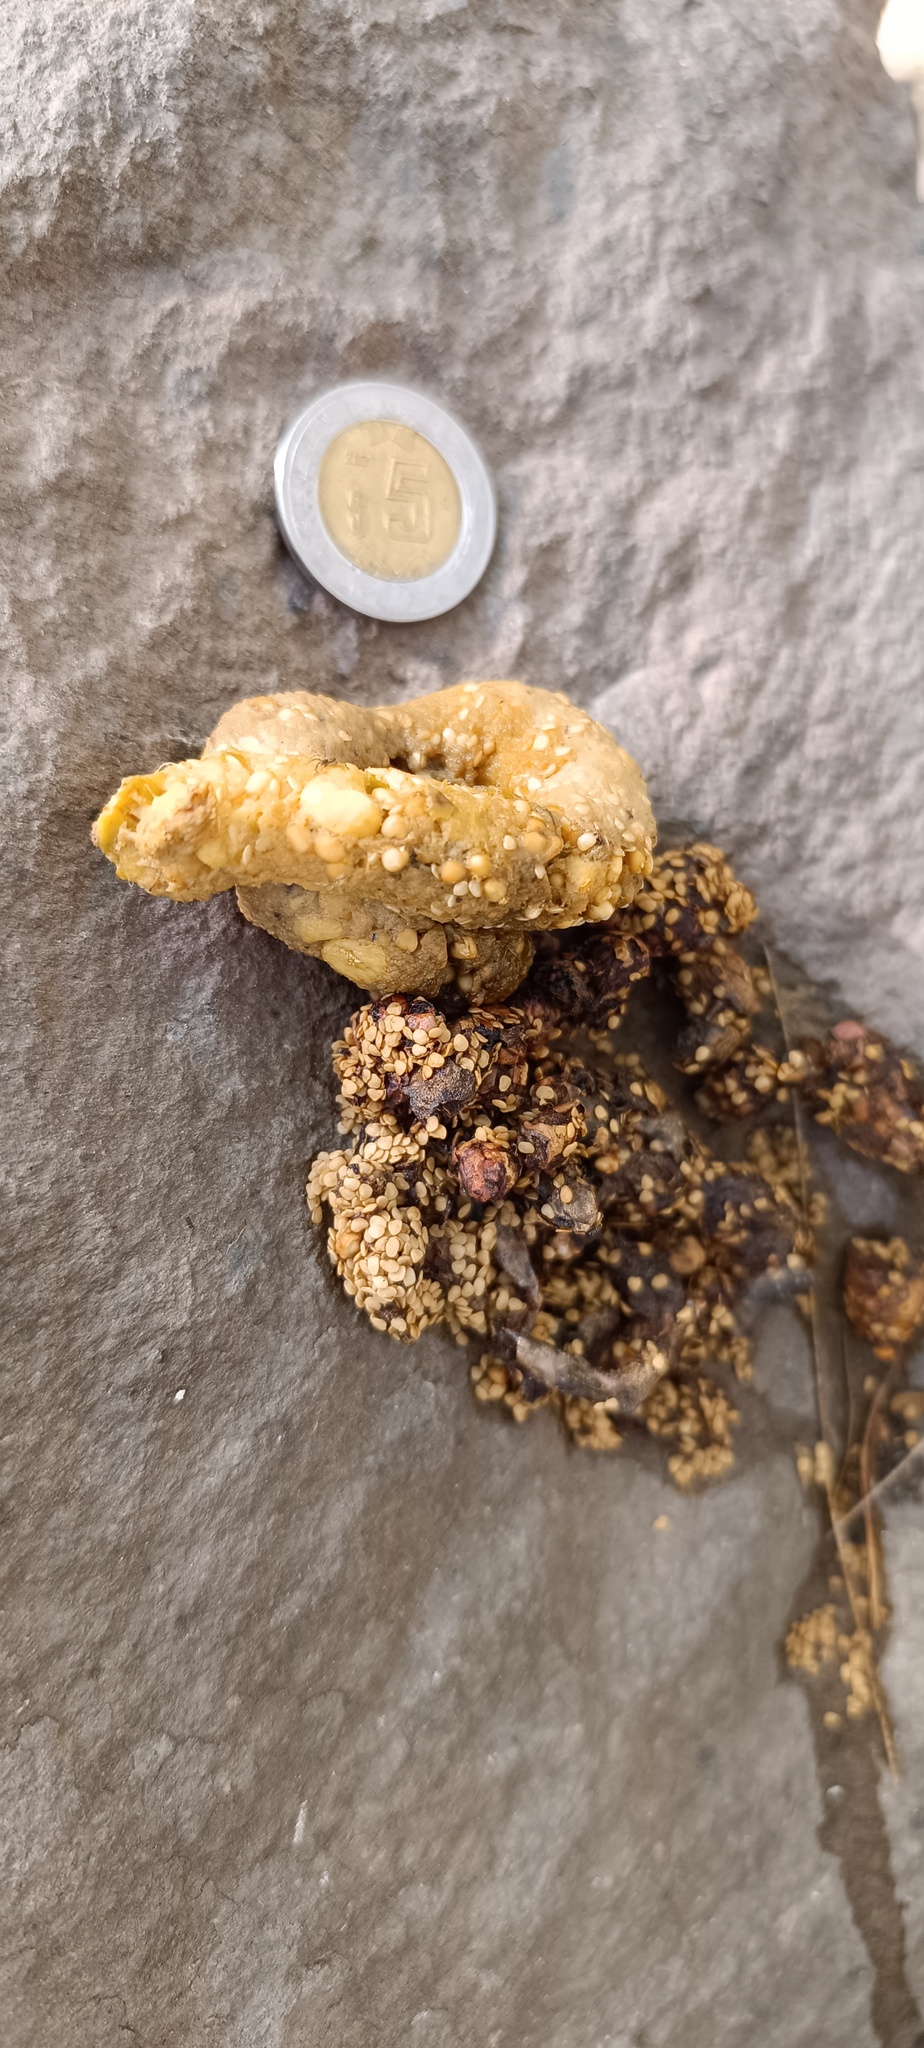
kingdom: Animalia
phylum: Chordata
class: Mammalia
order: Carnivora
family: Procyonidae
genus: Bassariscus
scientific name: Bassariscus astutus
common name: Ringtail
